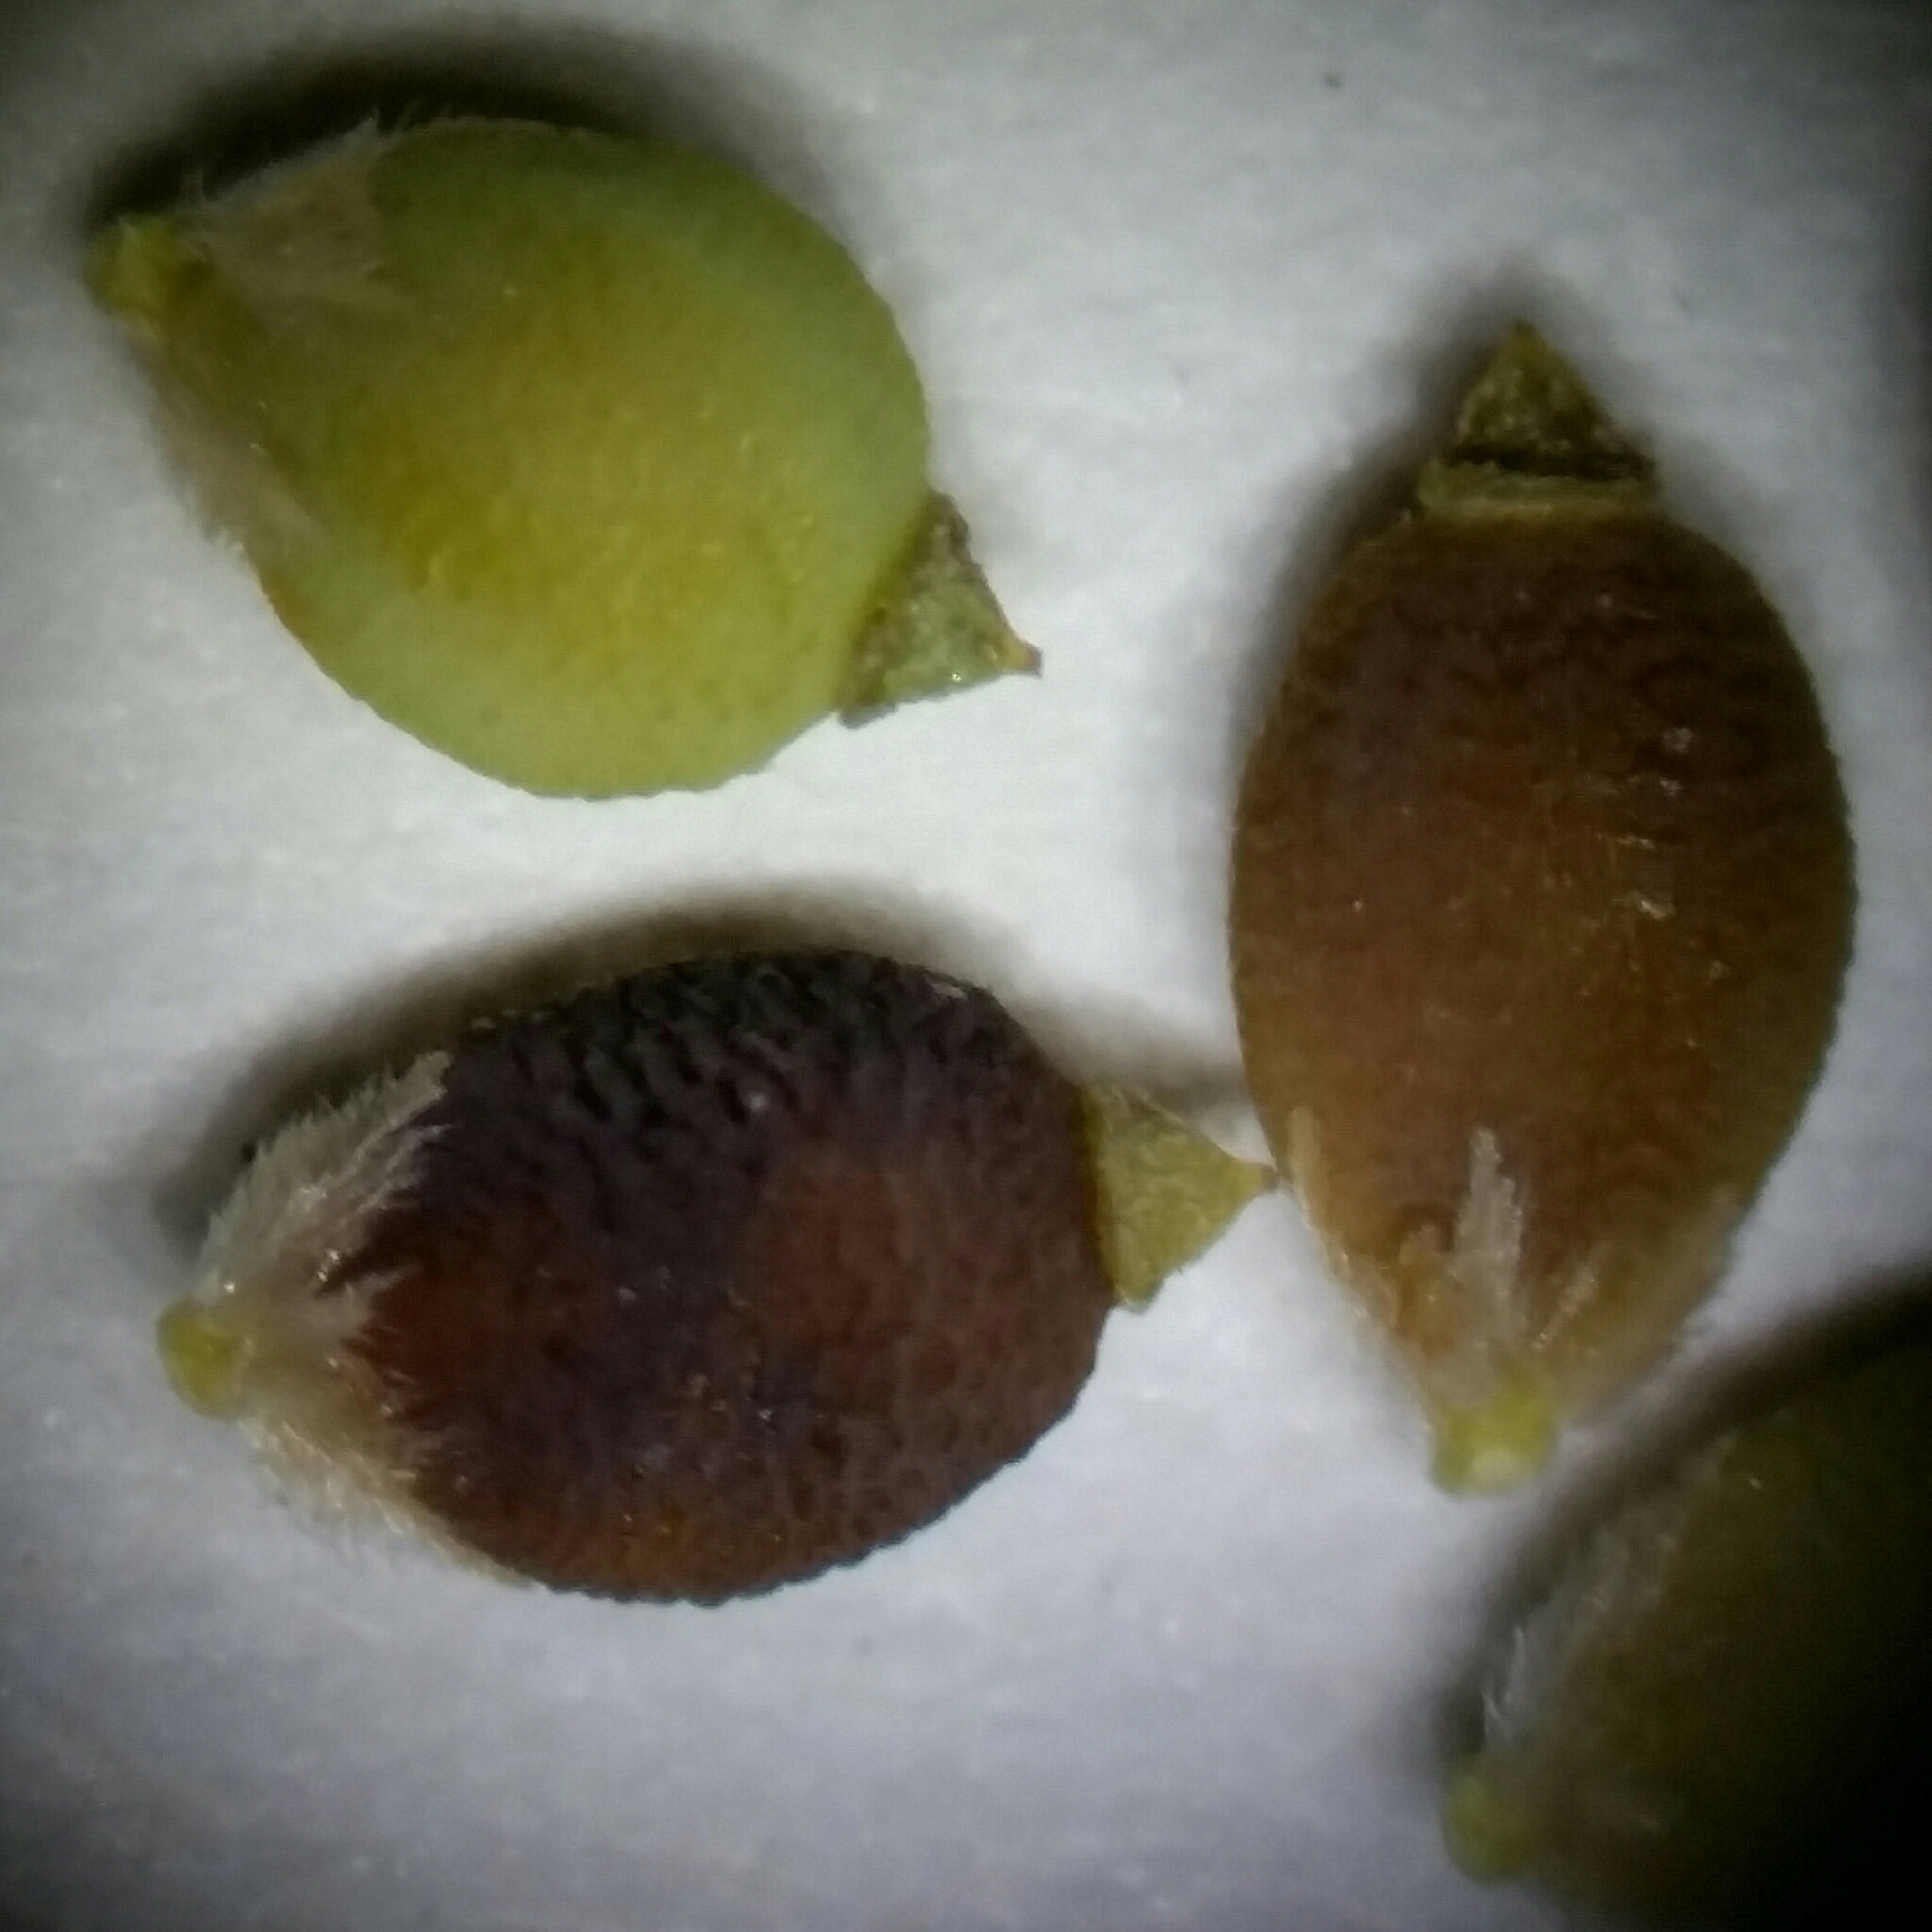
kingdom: Plantae
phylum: Tracheophyta
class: Liliopsida
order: Poales
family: Cyperaceae
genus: Rhynchospora
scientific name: Rhynchospora galeana
